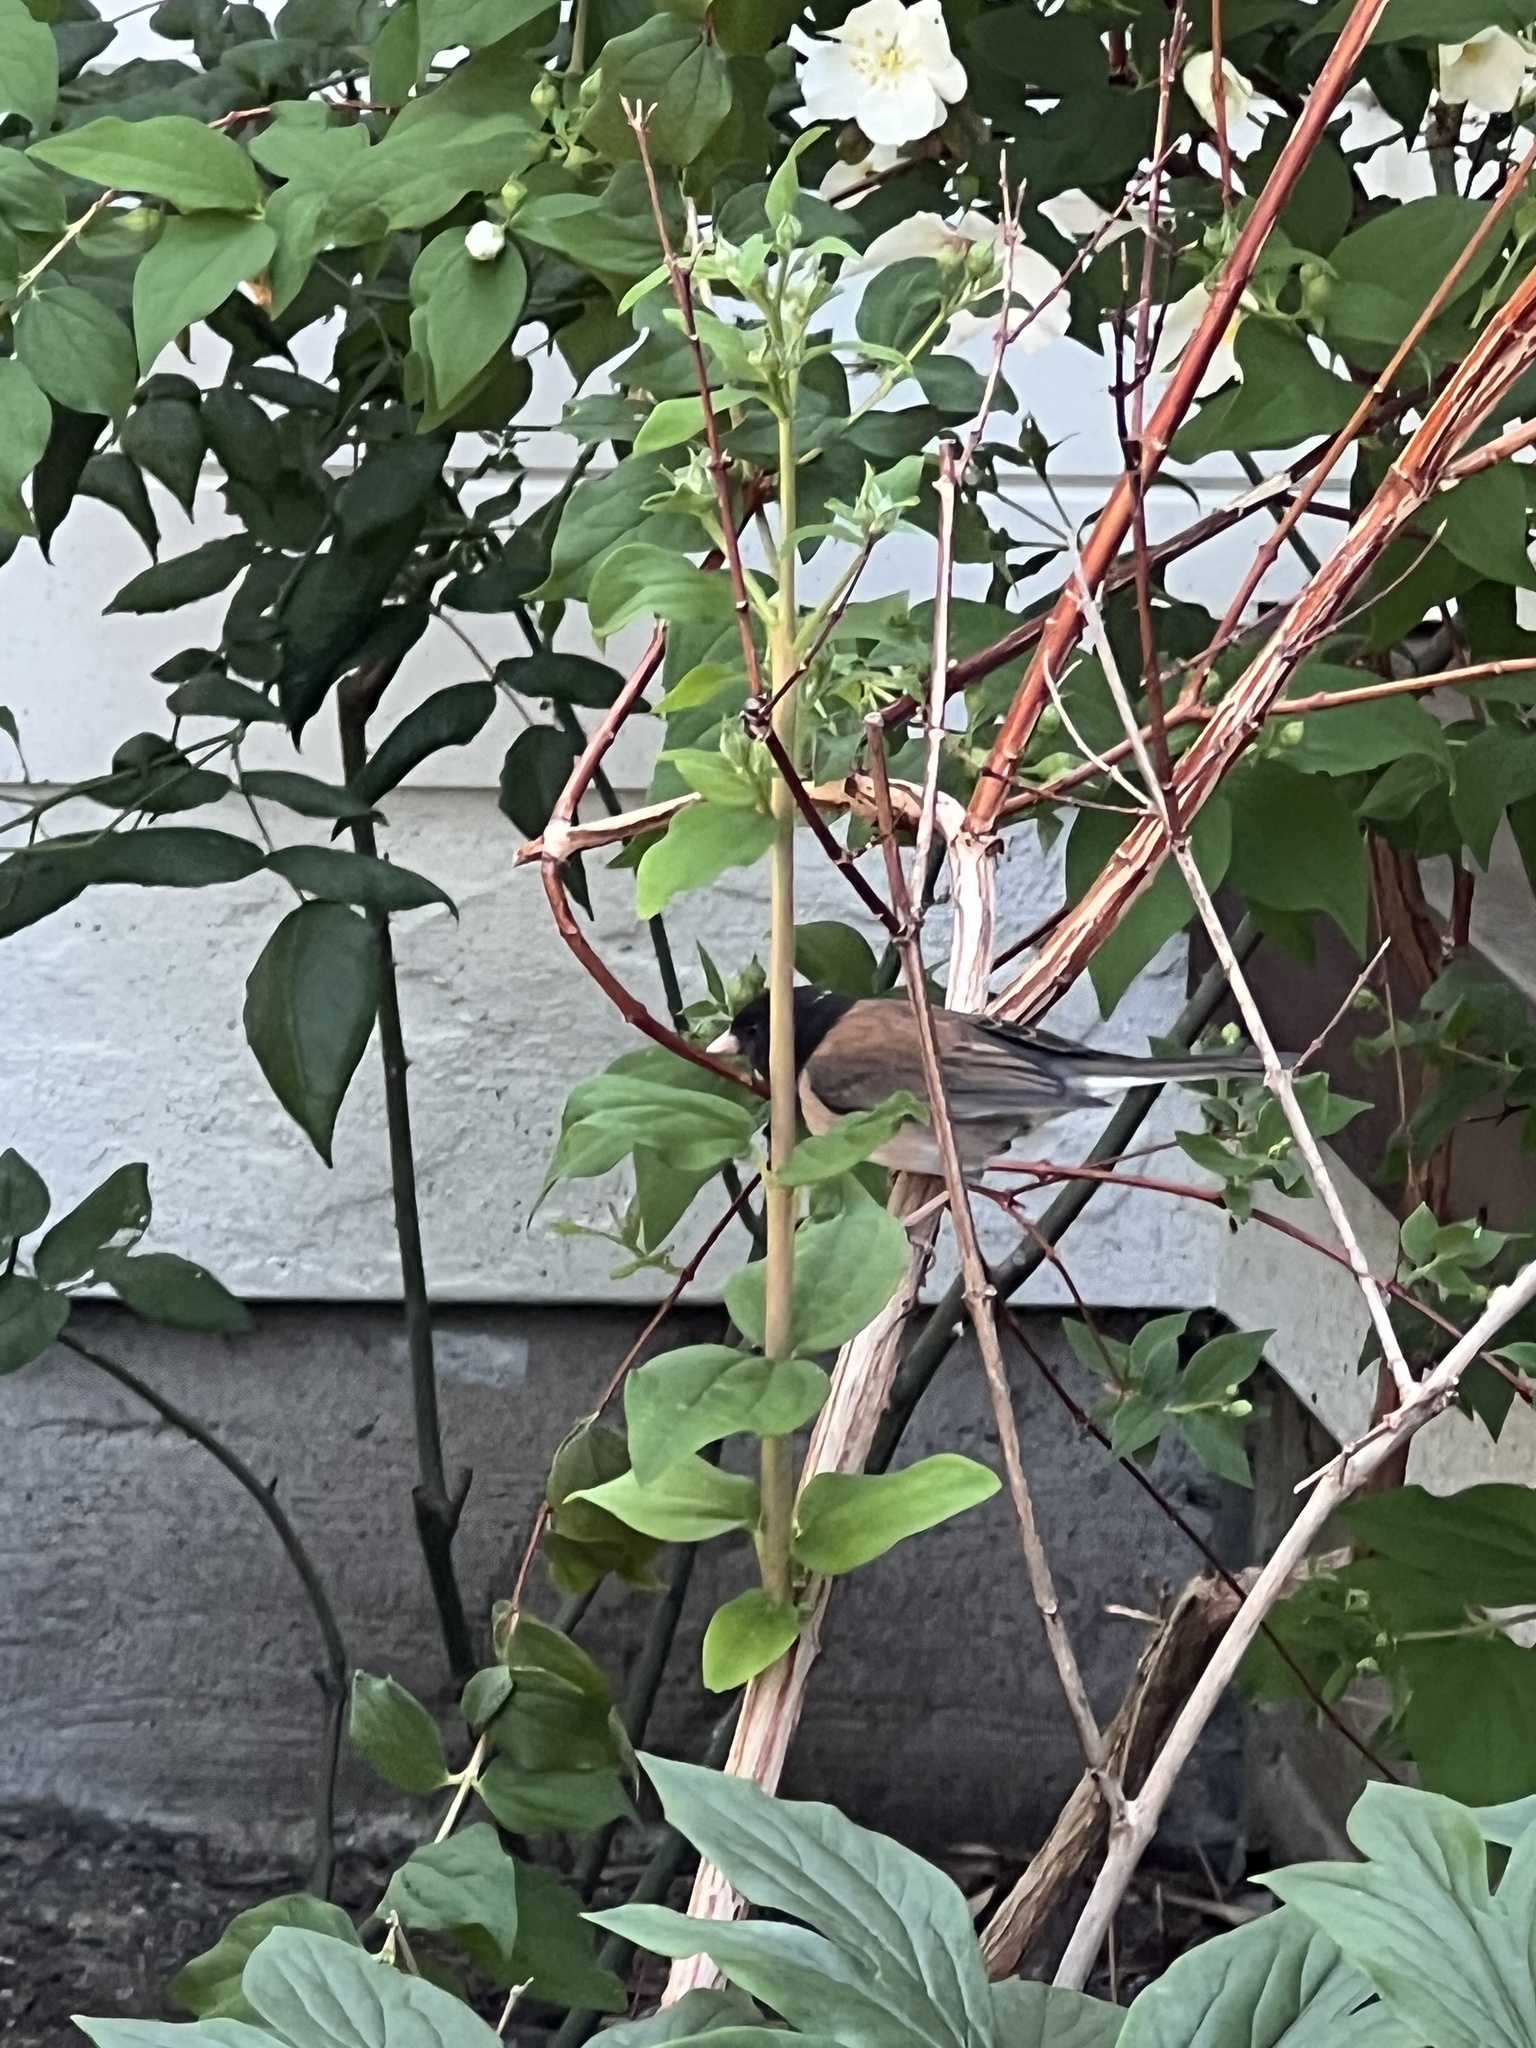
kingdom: Animalia
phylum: Chordata
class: Aves
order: Passeriformes
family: Passerellidae
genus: Junco
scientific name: Junco hyemalis
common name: Dark-eyed junco
